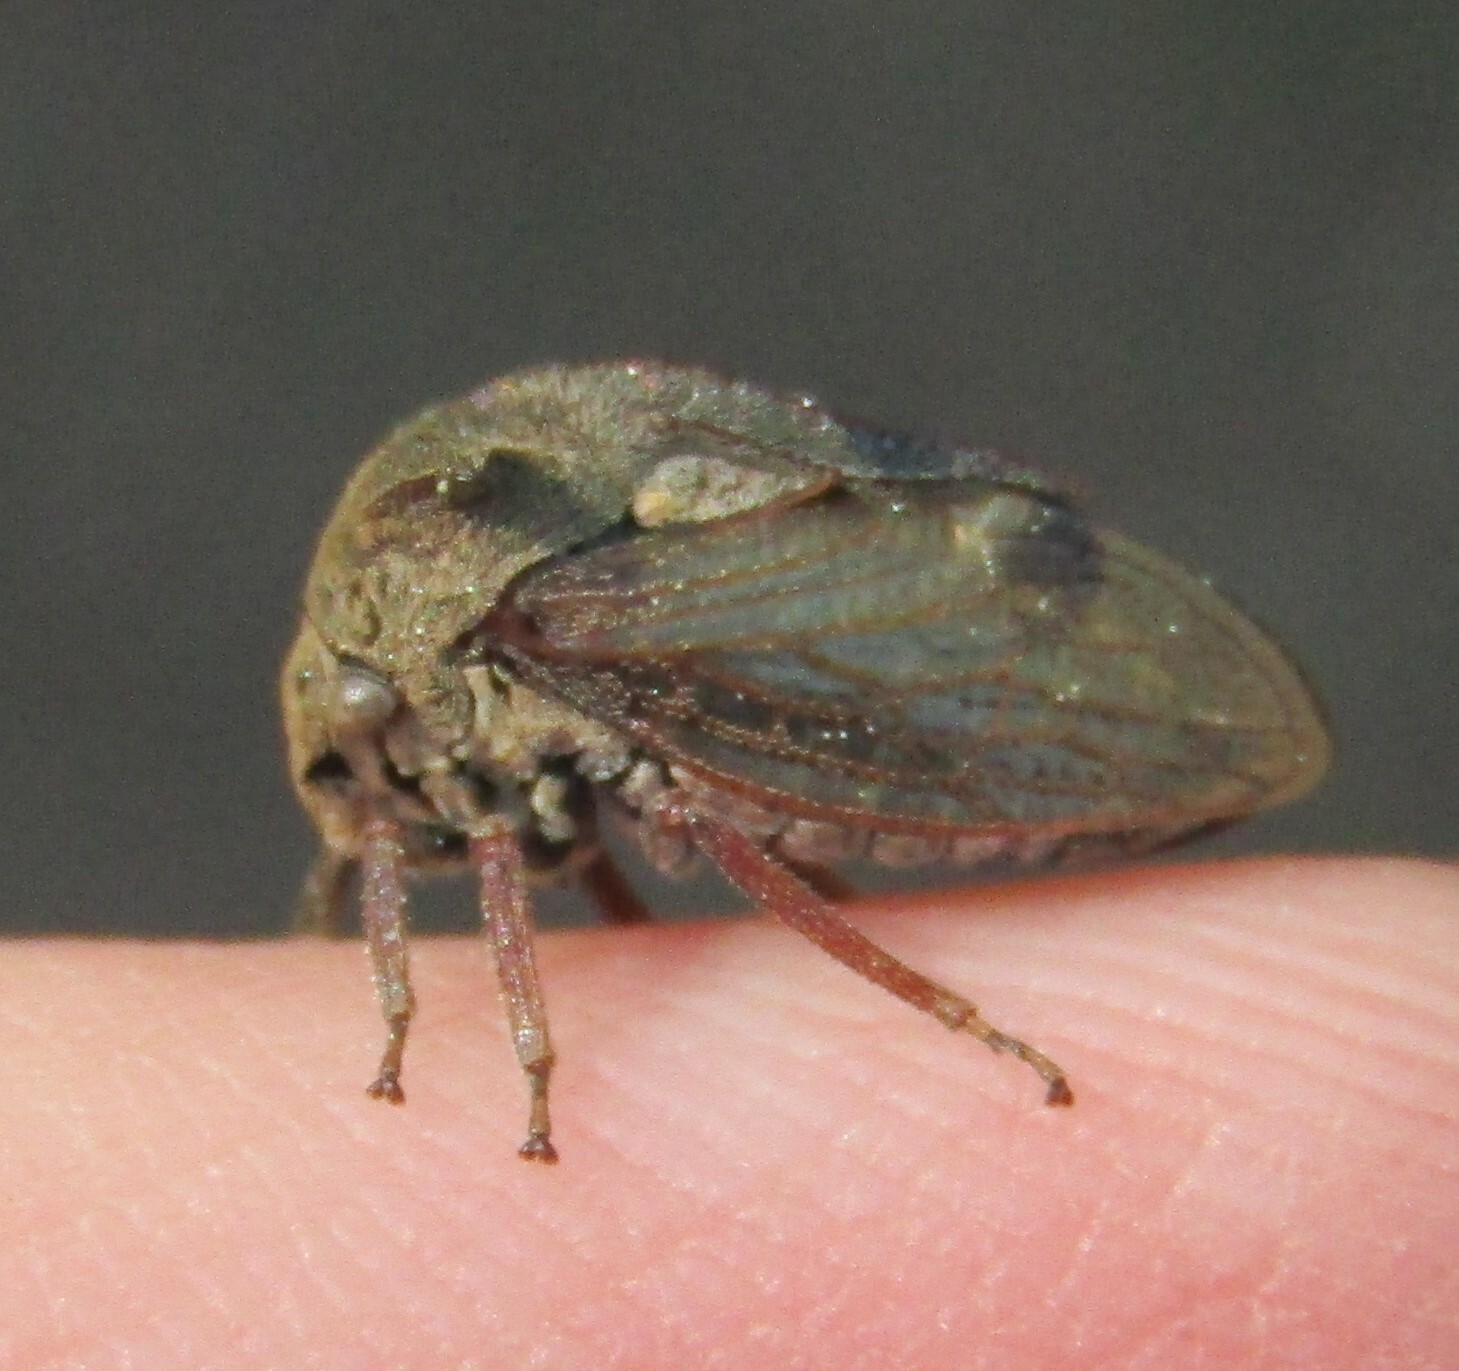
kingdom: Animalia
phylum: Arthropoda
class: Insecta
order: Hemiptera
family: Membracidae
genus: Centrotus
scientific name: Centrotus cornuta
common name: Treehopper
